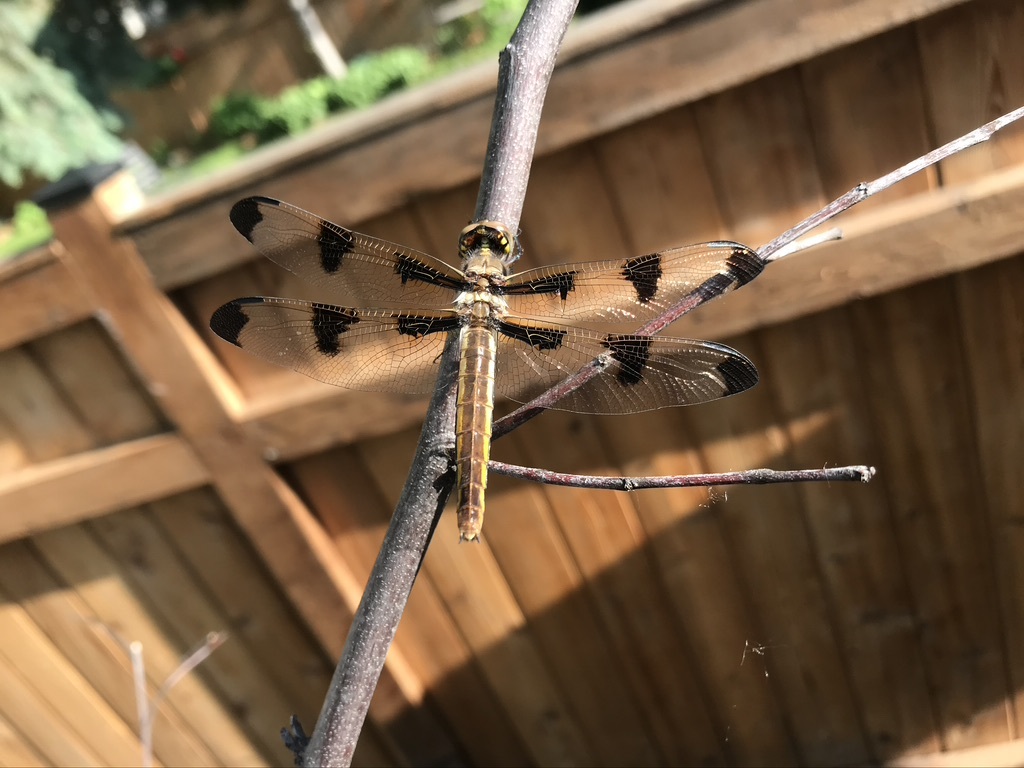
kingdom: Animalia
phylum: Arthropoda
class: Insecta
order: Odonata
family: Libellulidae
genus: Libellula
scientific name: Libellula pulchella
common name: Twelve-spotted skimmer
